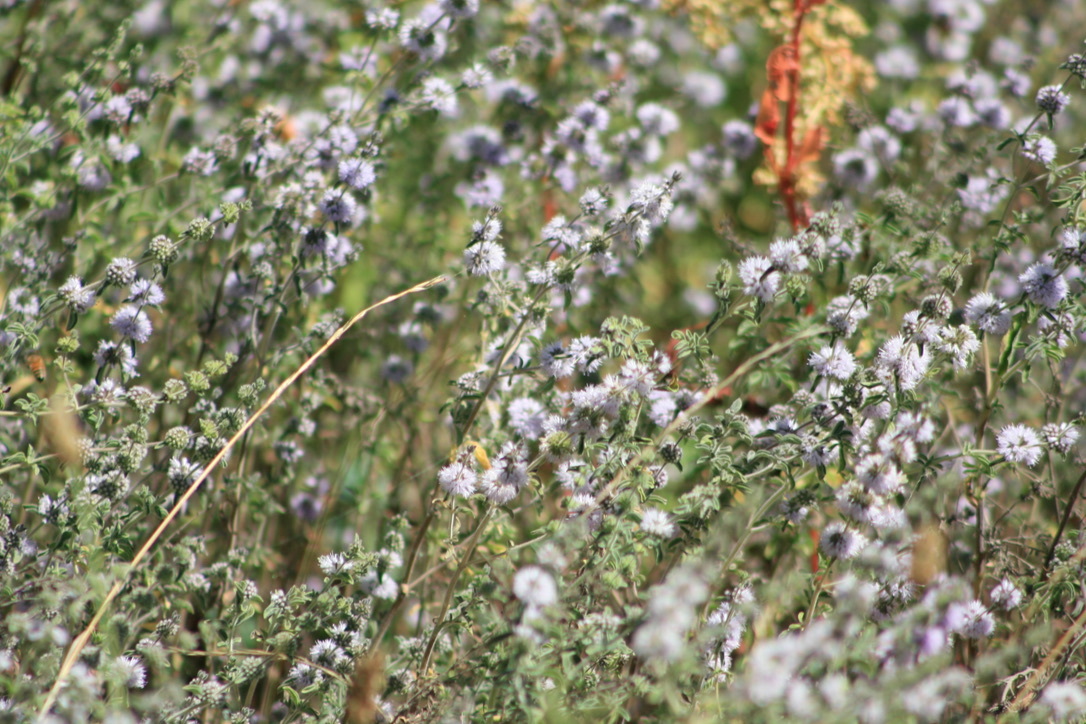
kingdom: Plantae
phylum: Tracheophyta
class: Magnoliopsida
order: Lamiales
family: Lamiaceae
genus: Mentha
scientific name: Mentha pulegium
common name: Pennyroyal
